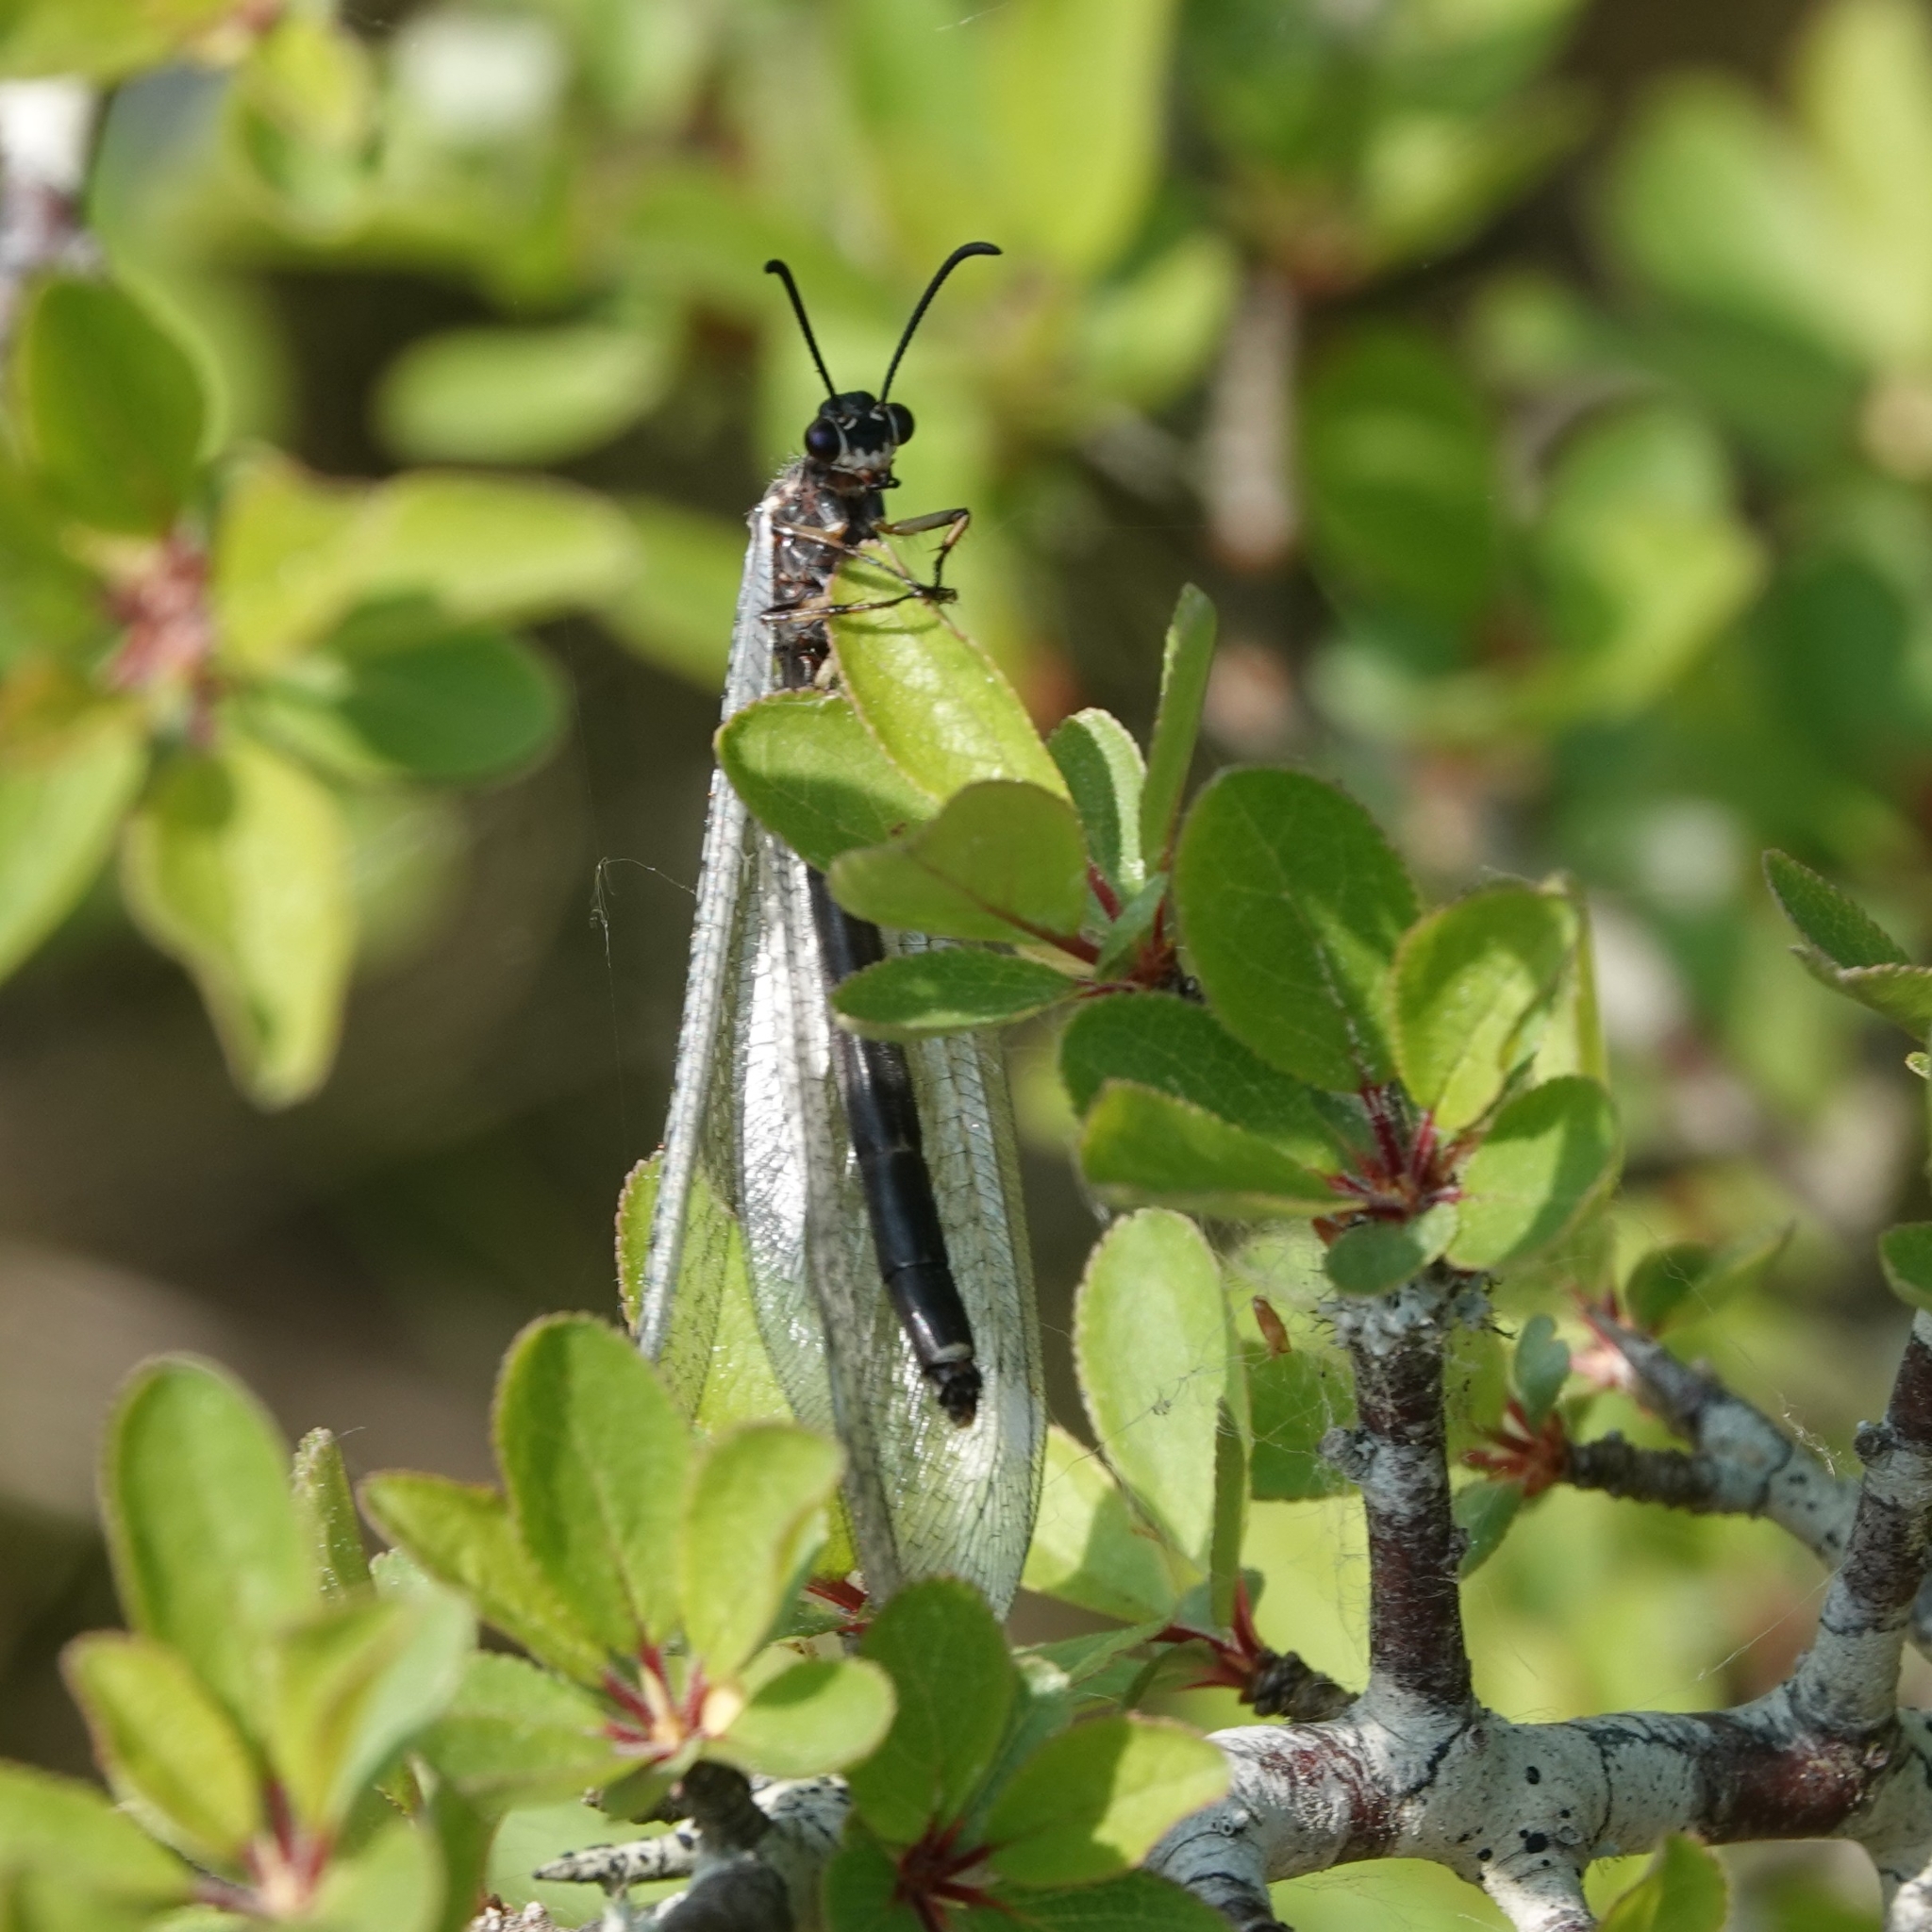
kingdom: Animalia
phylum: Arthropoda
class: Insecta
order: Neuroptera
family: Myrmeleontidae
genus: Myrmeleon
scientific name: Myrmeleon formicarius
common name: Ant-lion
